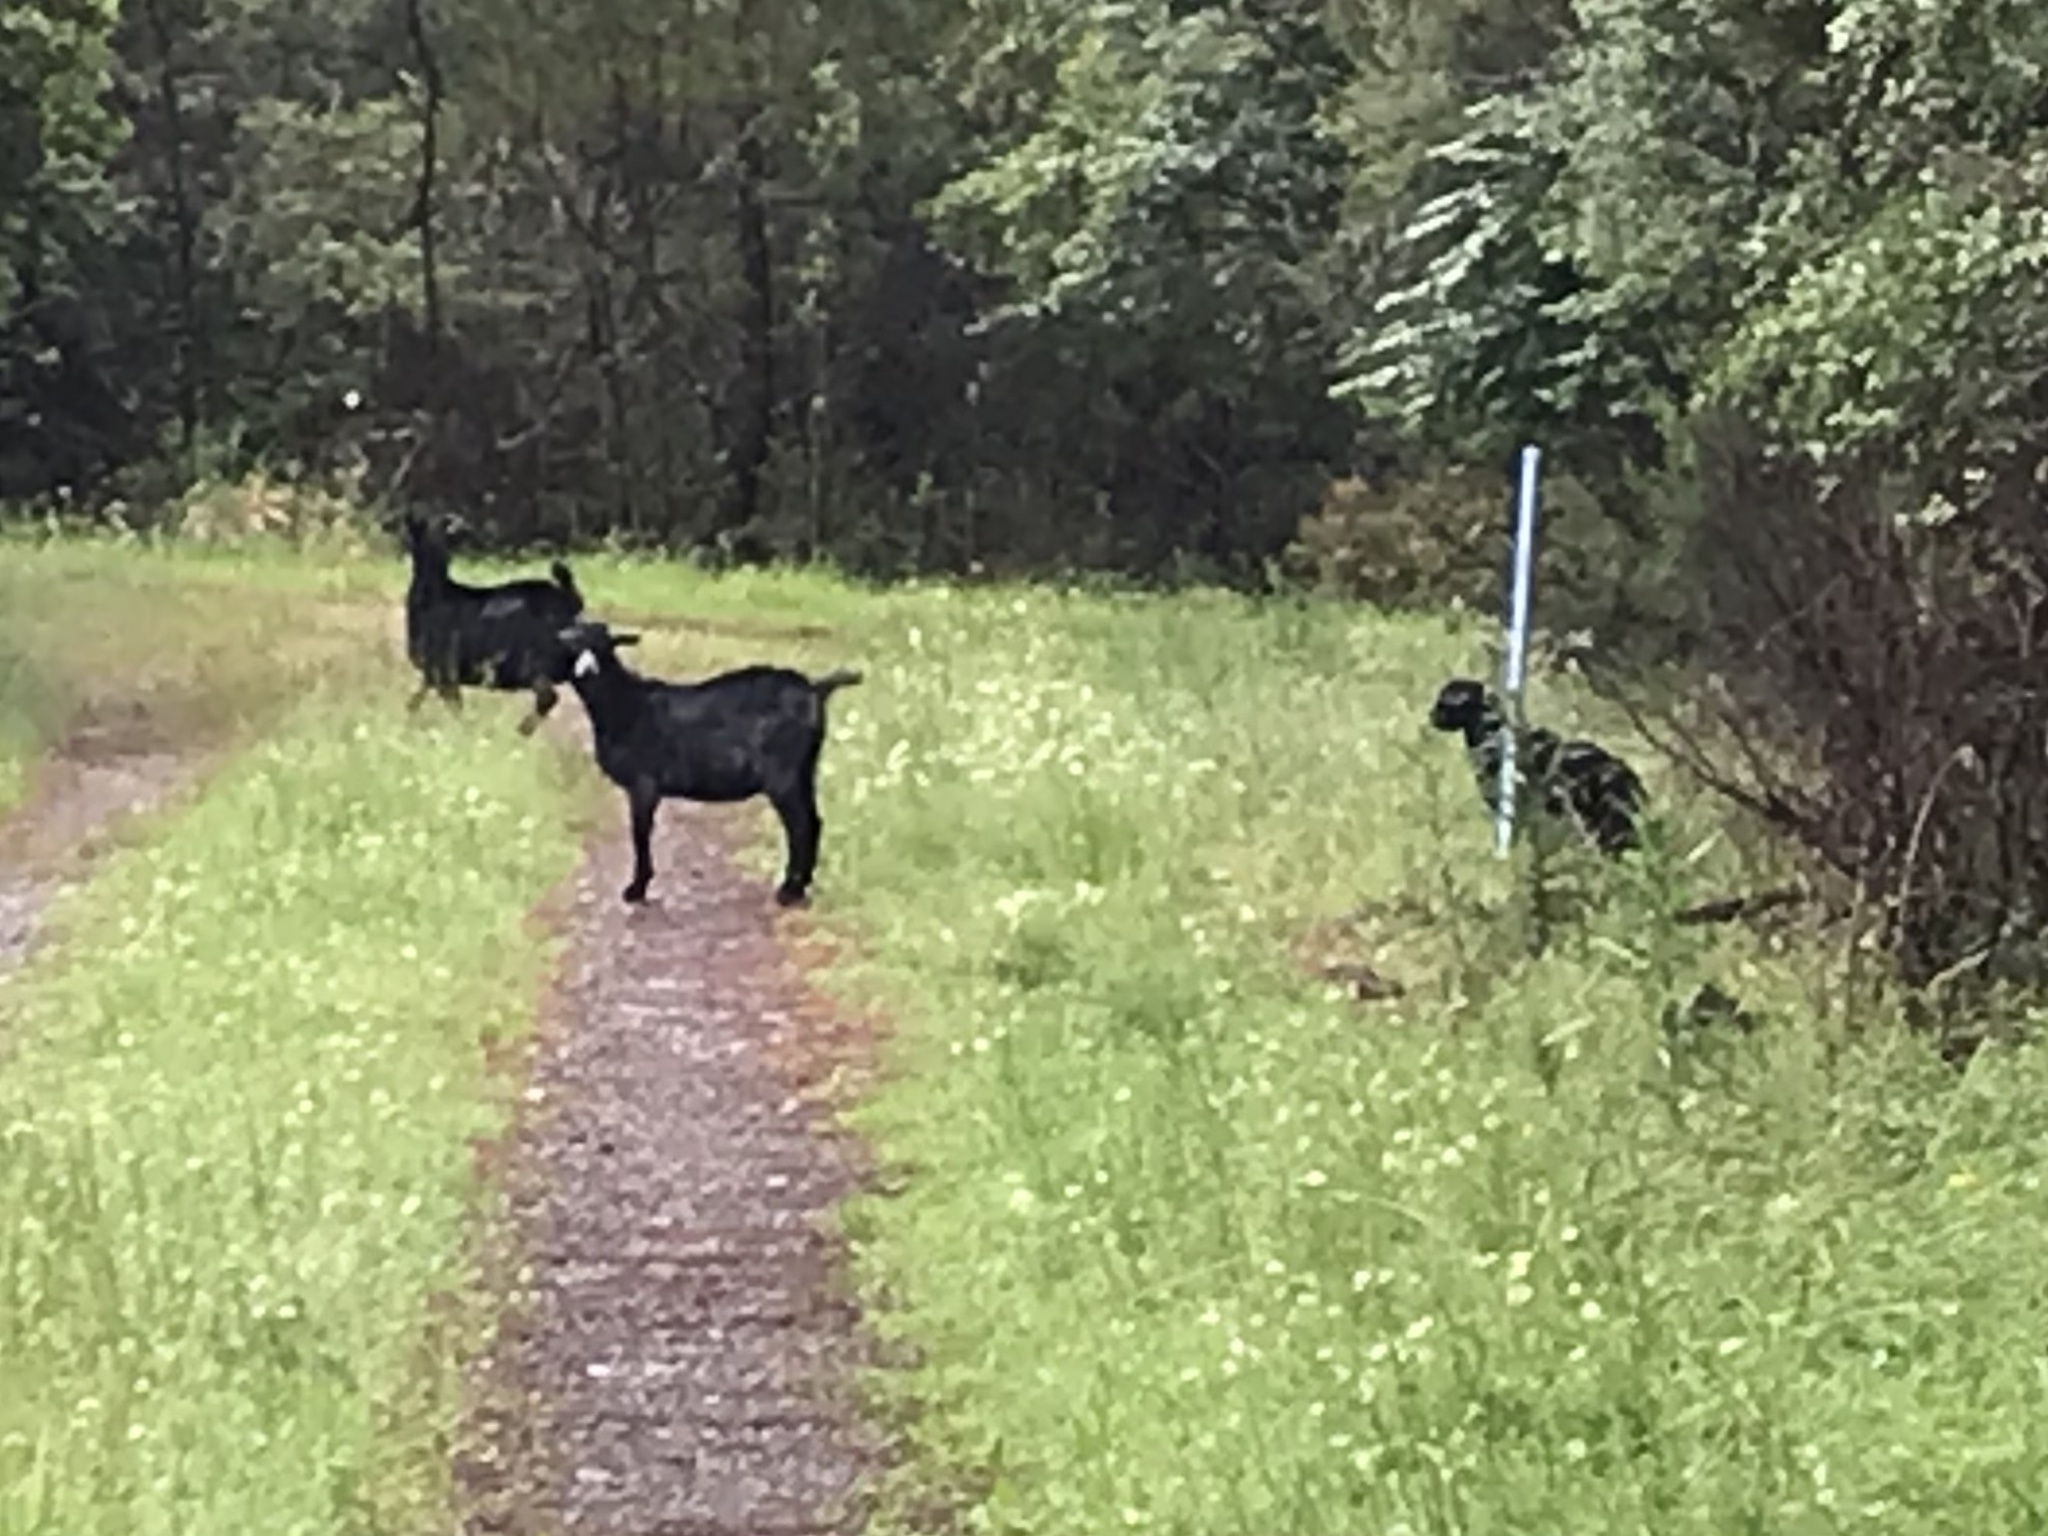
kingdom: Animalia
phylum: Chordata
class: Mammalia
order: Artiodactyla
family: Bovidae
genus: Capra
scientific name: Capra hircus
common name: Domestic goat
